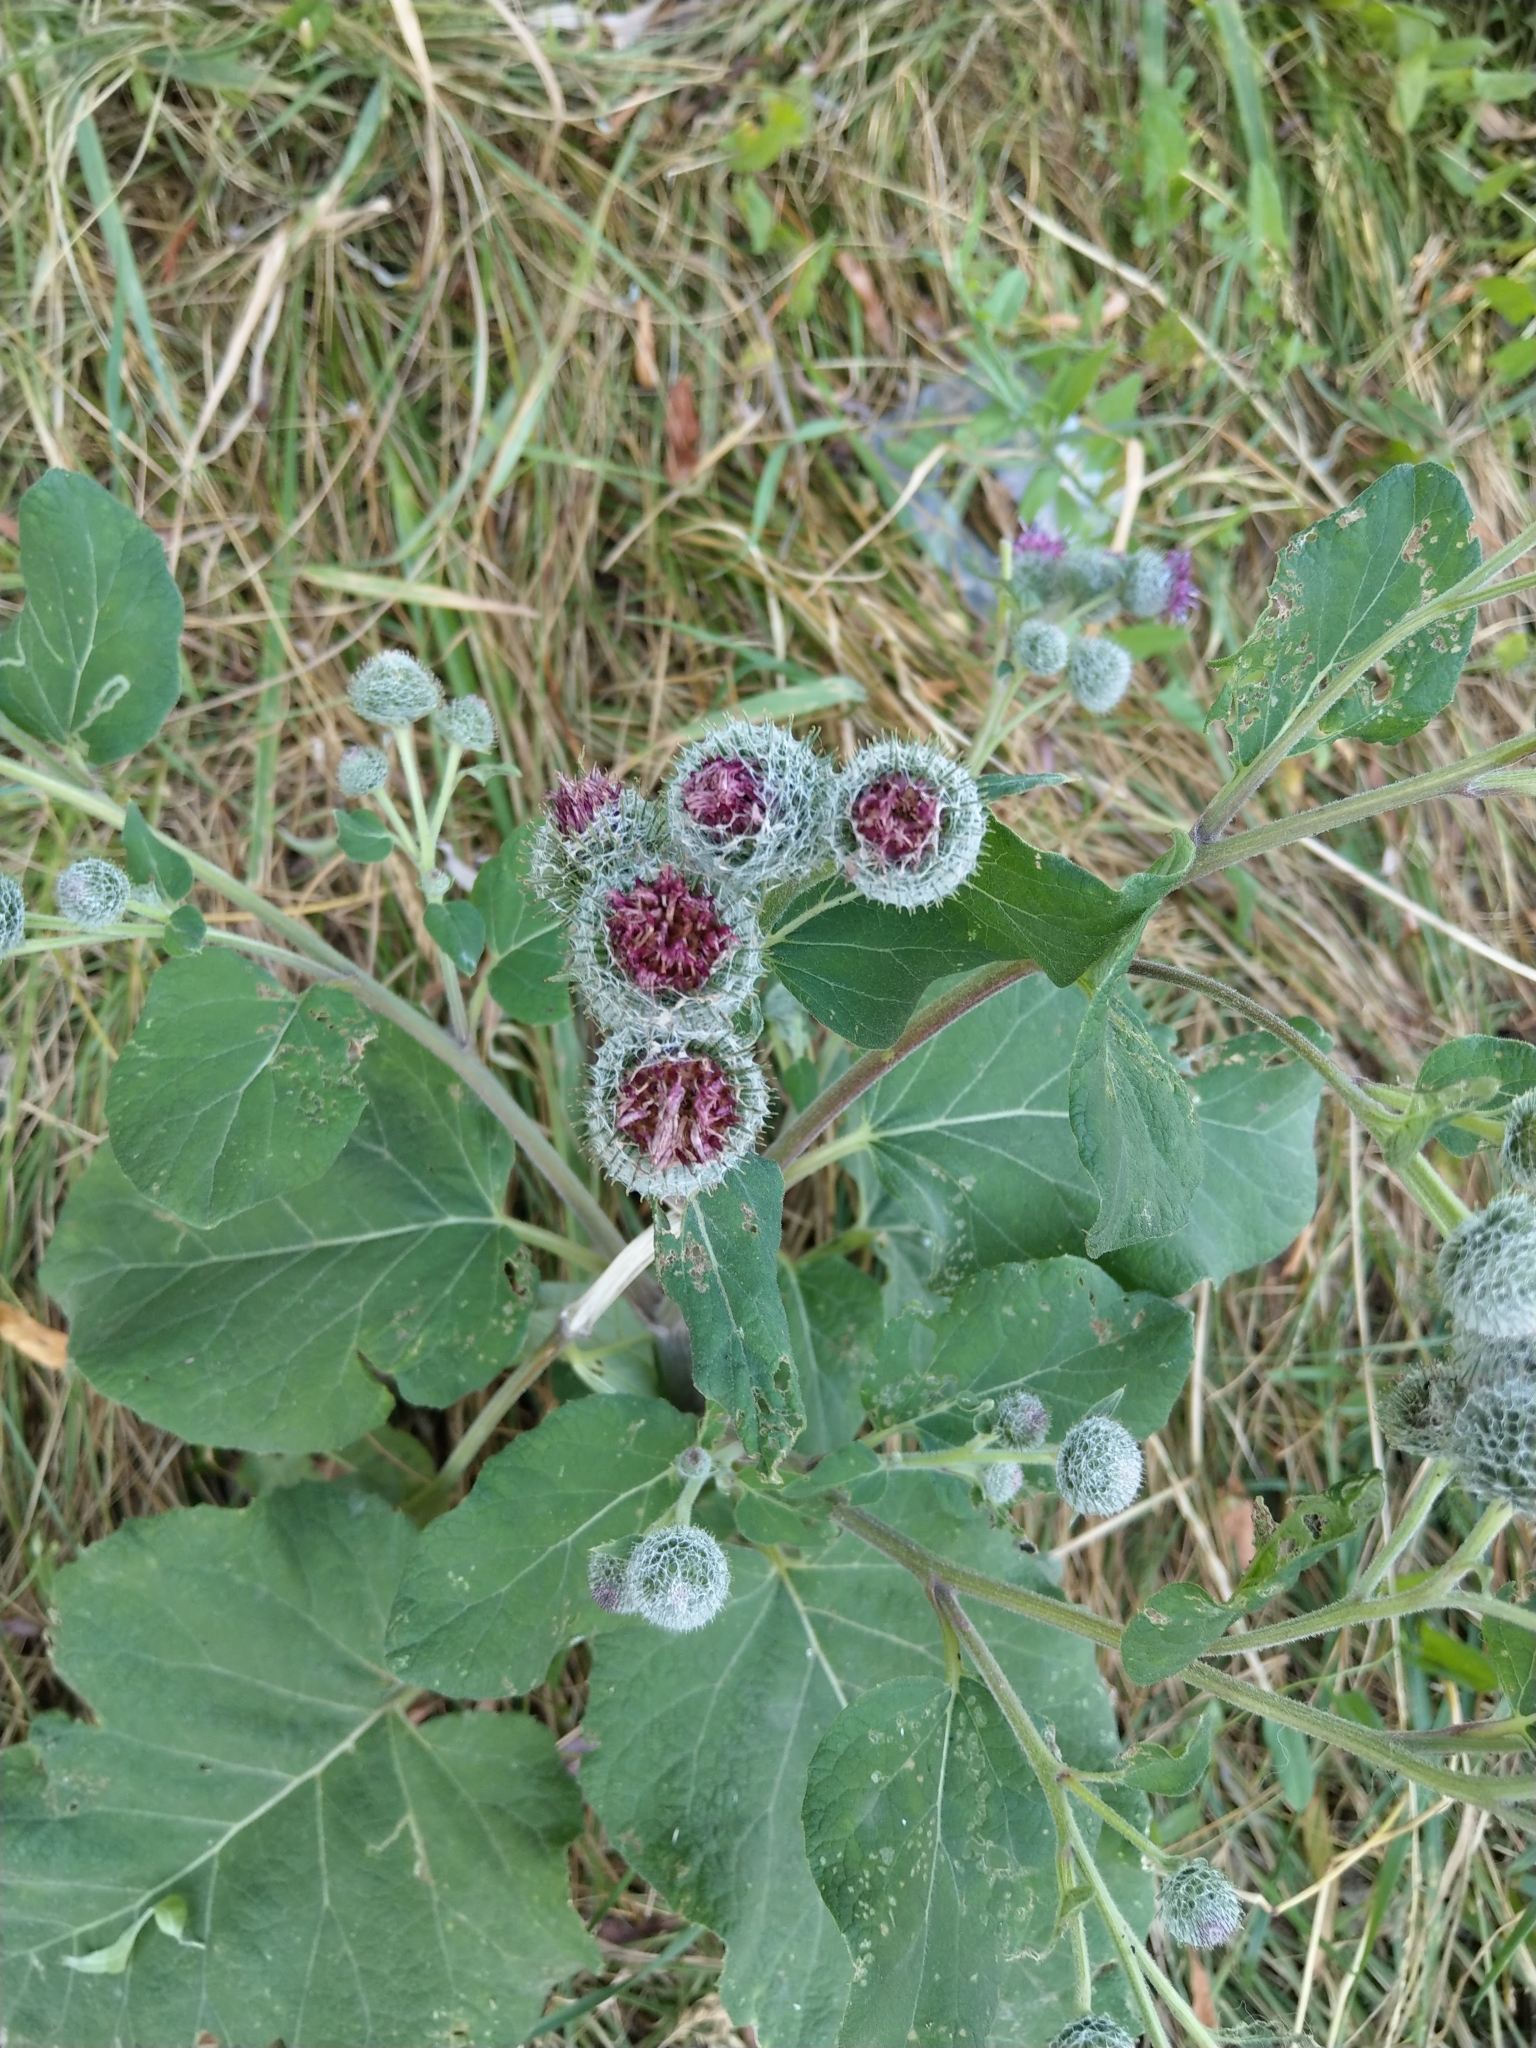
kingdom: Plantae
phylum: Tracheophyta
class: Magnoliopsida
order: Asterales
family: Asteraceae
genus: Arctium
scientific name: Arctium tomentosum
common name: Woolly burdock
